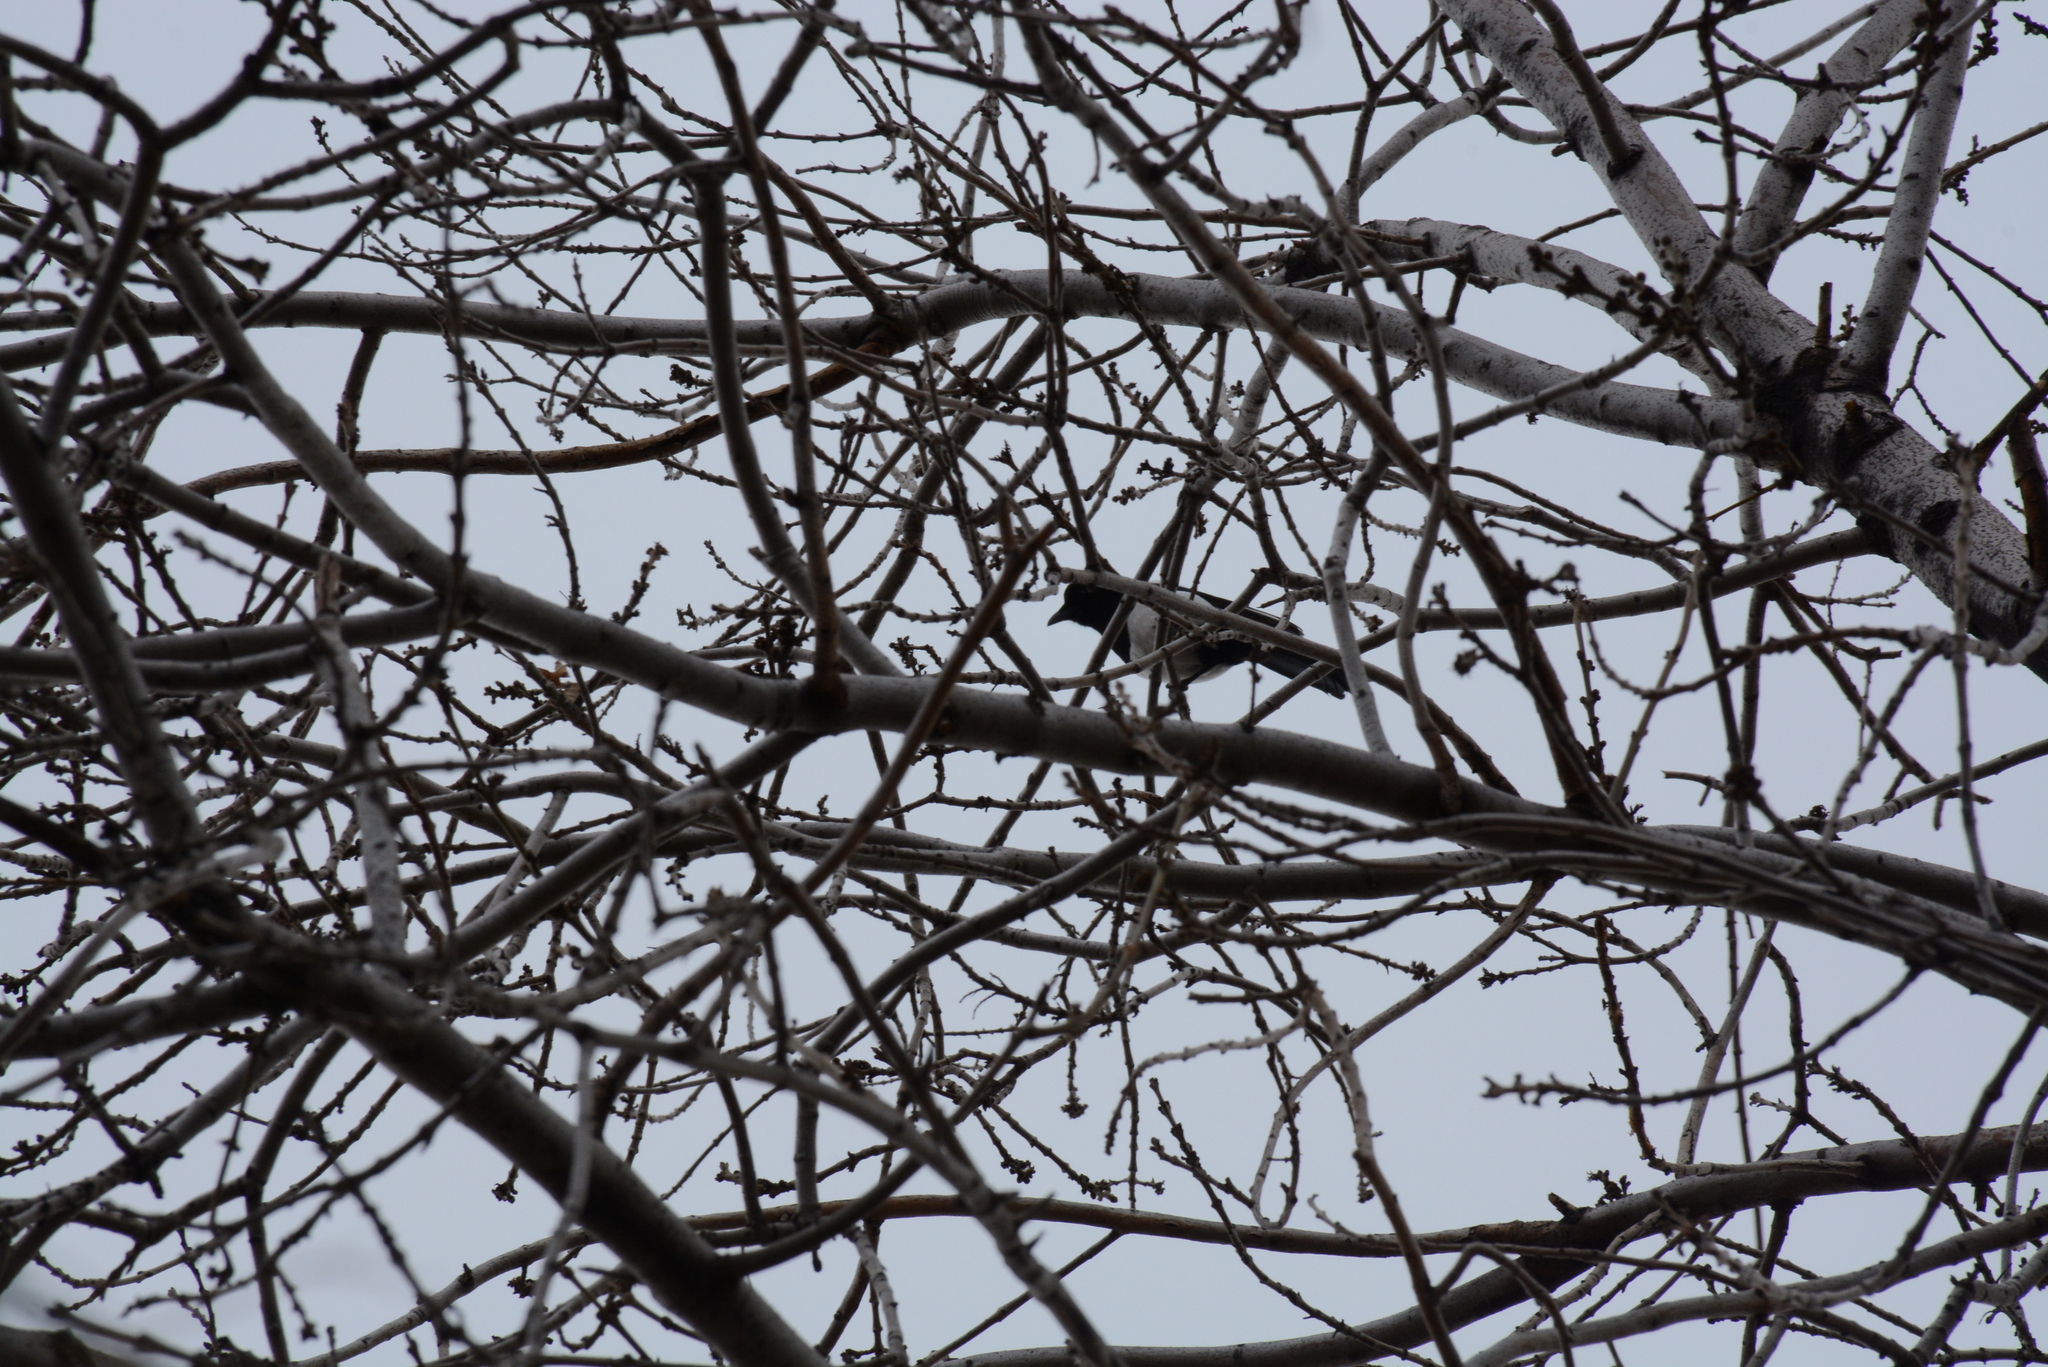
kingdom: Animalia
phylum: Chordata
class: Aves
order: Passeriformes
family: Corvidae
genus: Pica
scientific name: Pica pica
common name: Eurasian magpie
